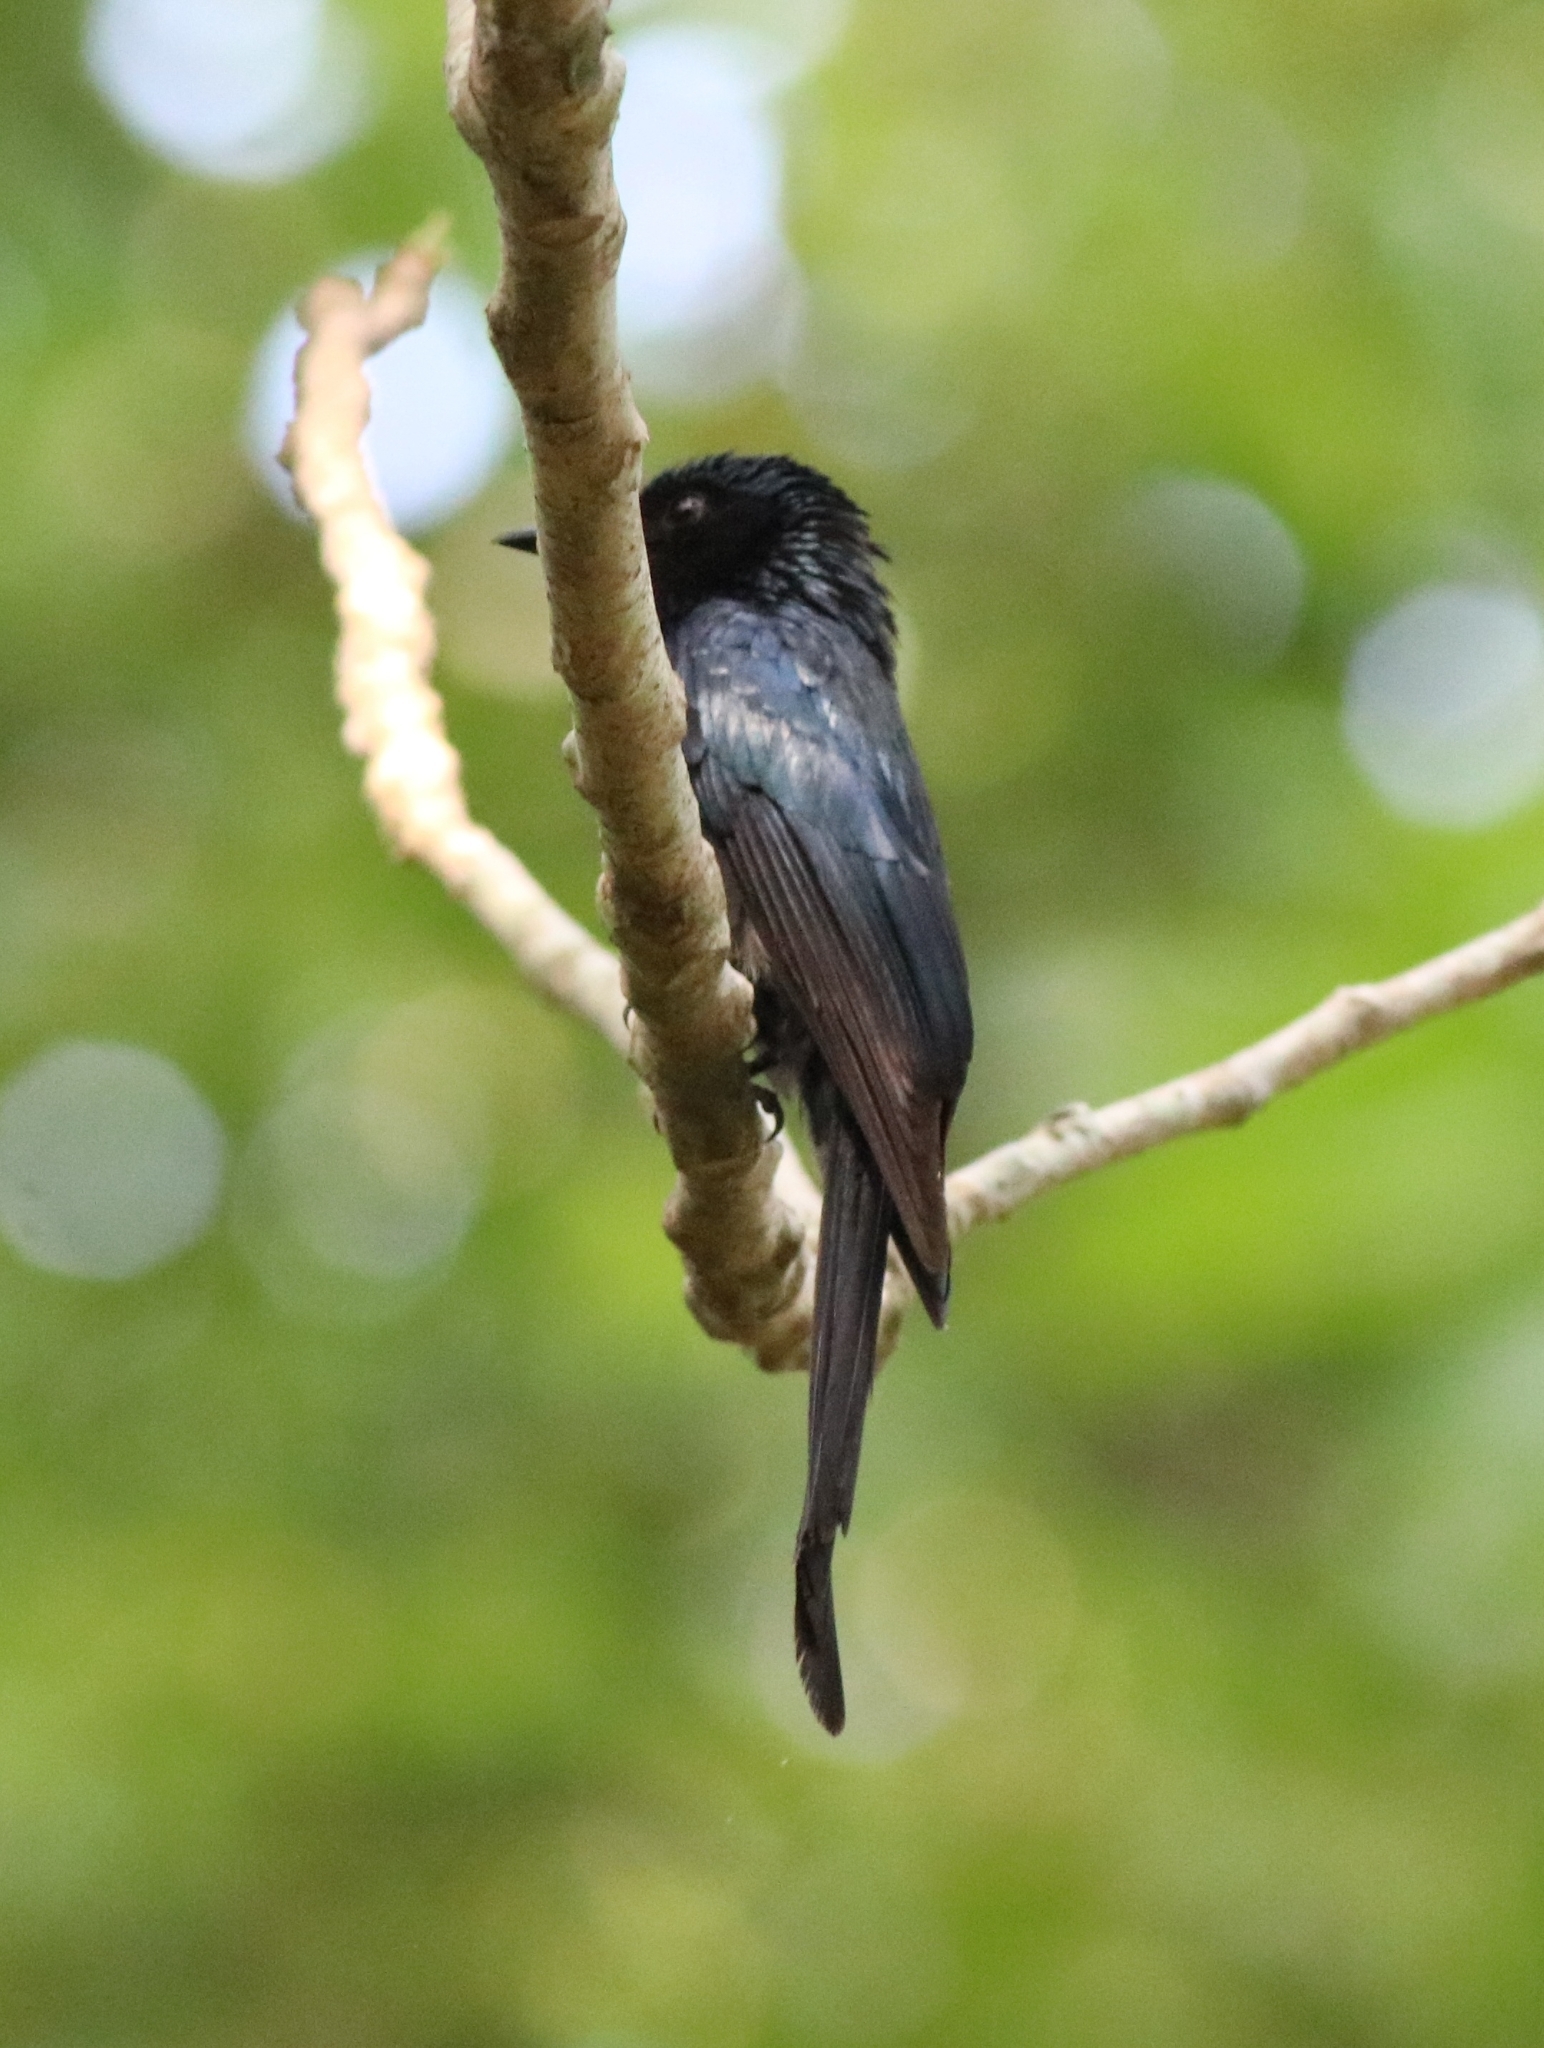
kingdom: Animalia
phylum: Chordata
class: Aves
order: Passeriformes
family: Dicruridae
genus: Dicrurus
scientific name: Dicrurus aeneus
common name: Bronzed drongo
